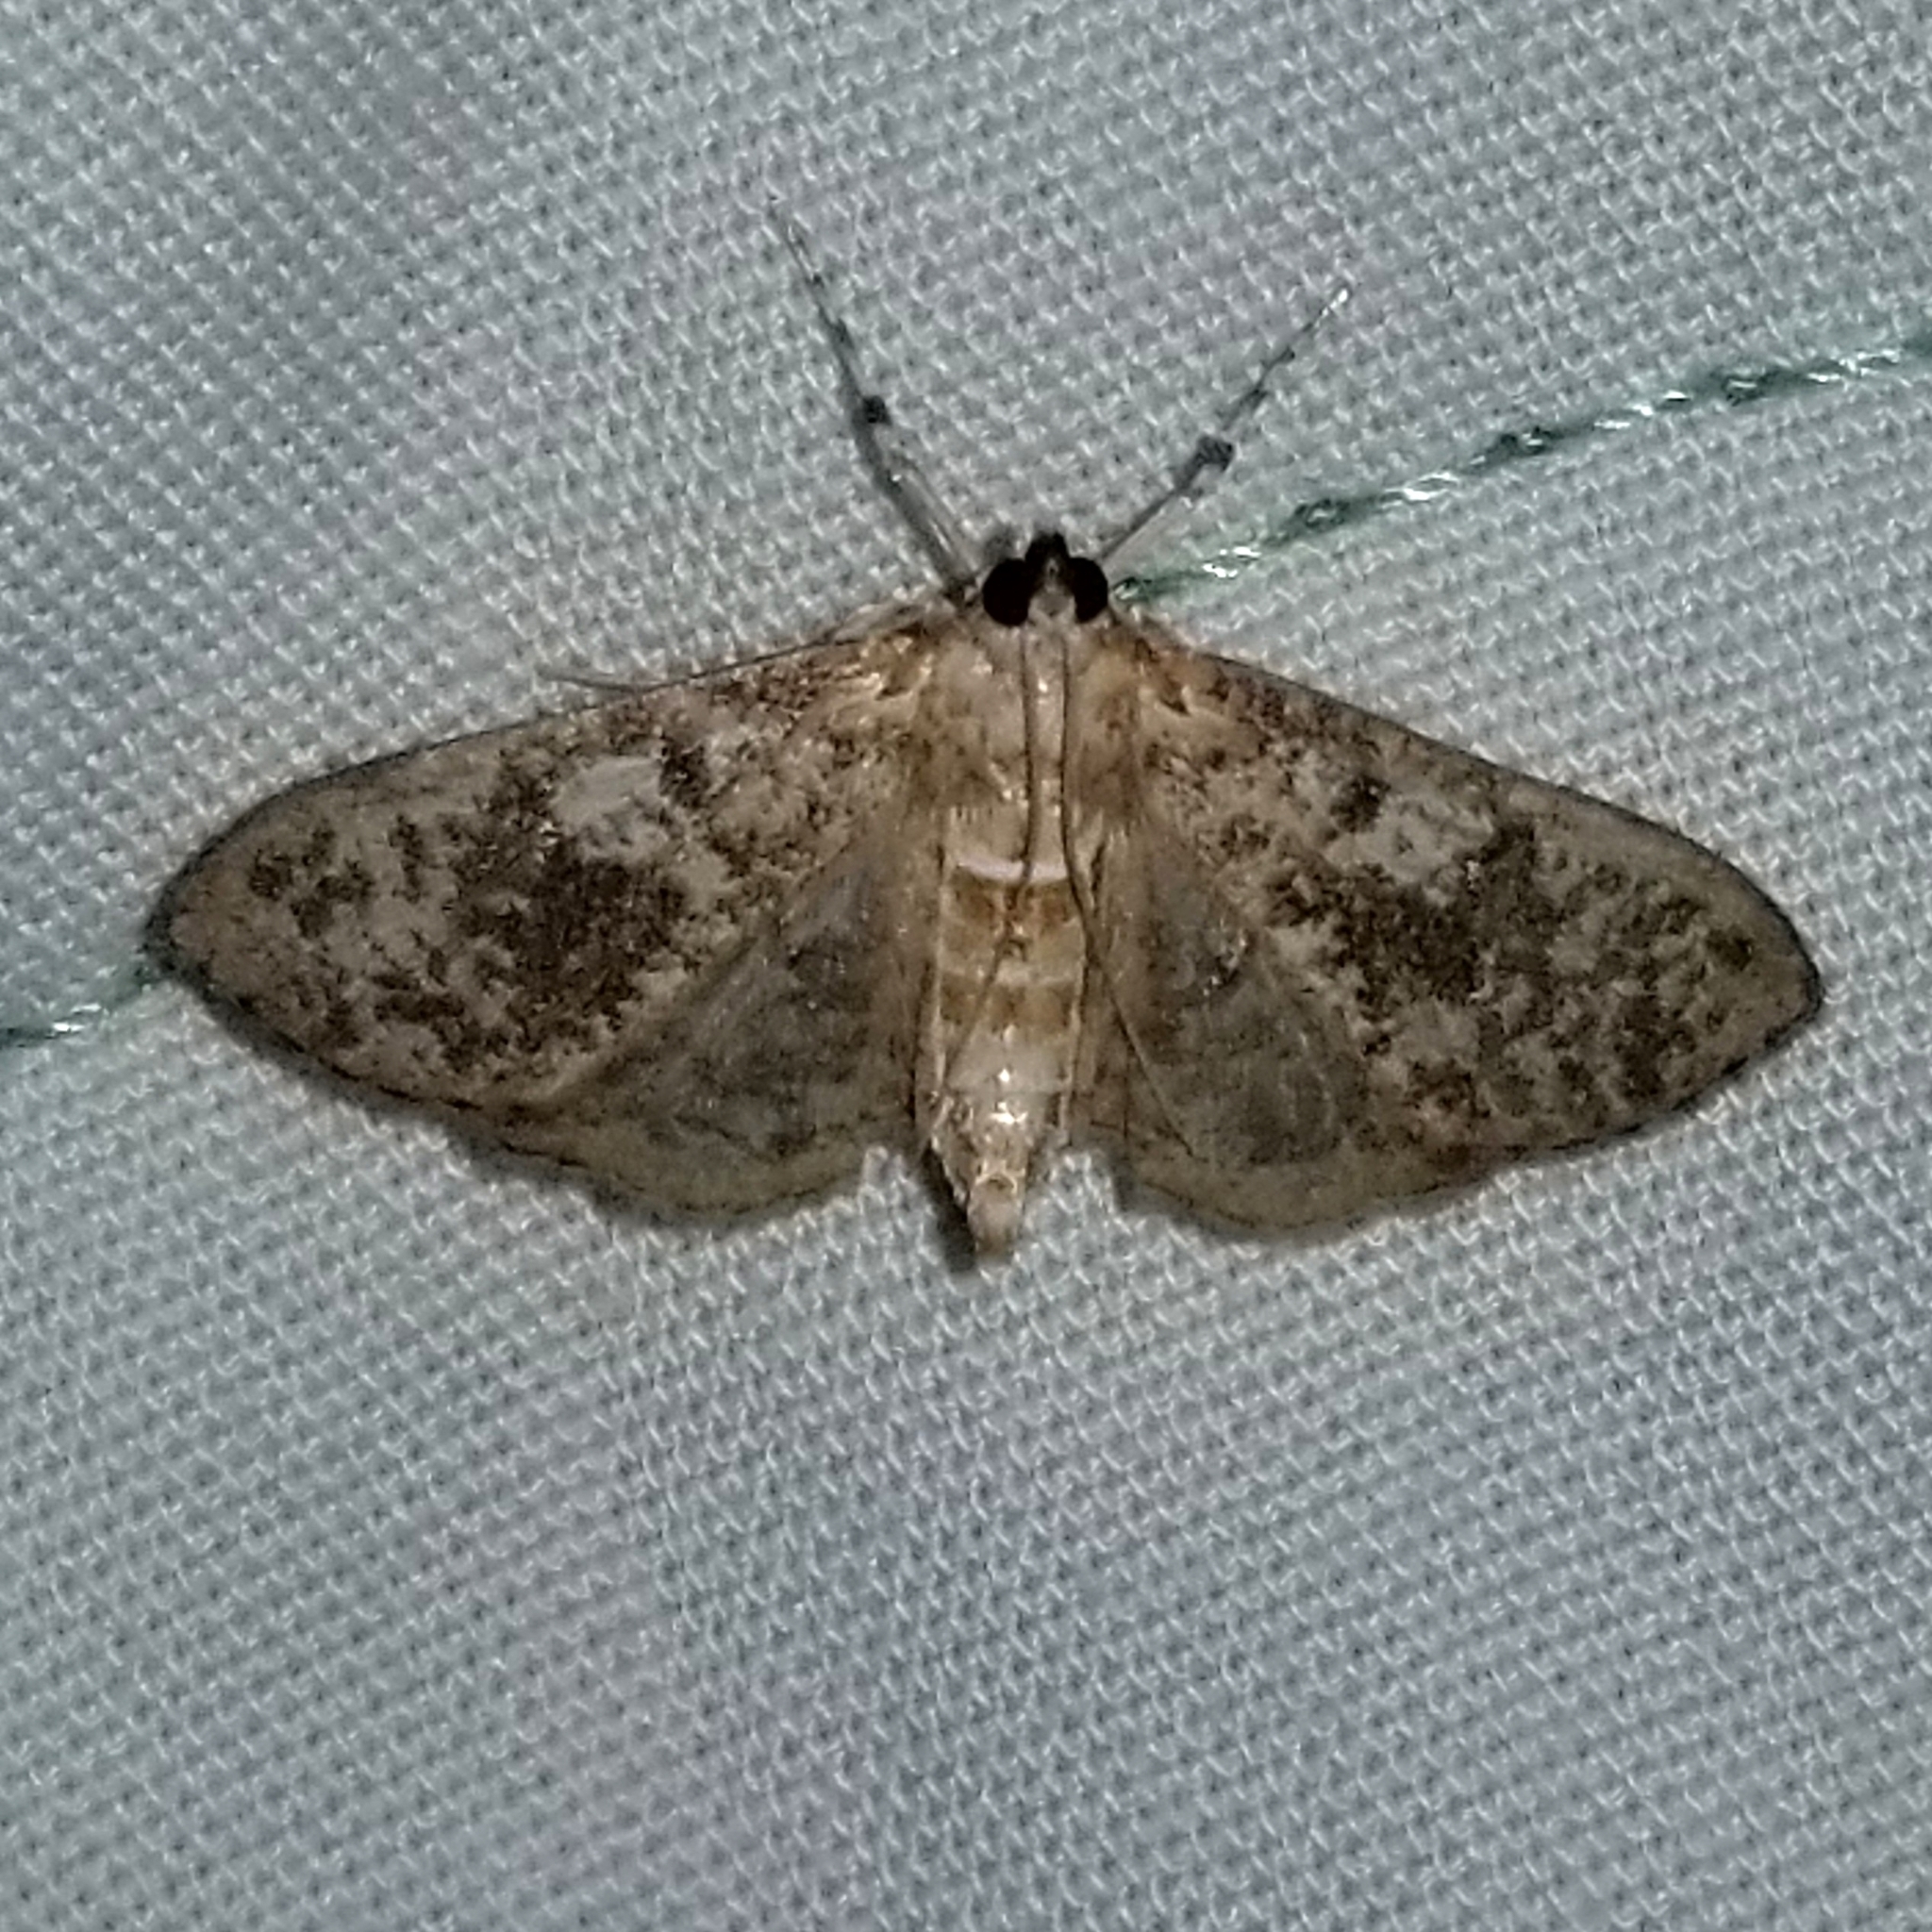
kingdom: Animalia
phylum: Arthropoda
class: Insecta
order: Lepidoptera
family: Crambidae
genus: Palpita
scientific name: Palpita magniferalis
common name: Splendid palpita moth
